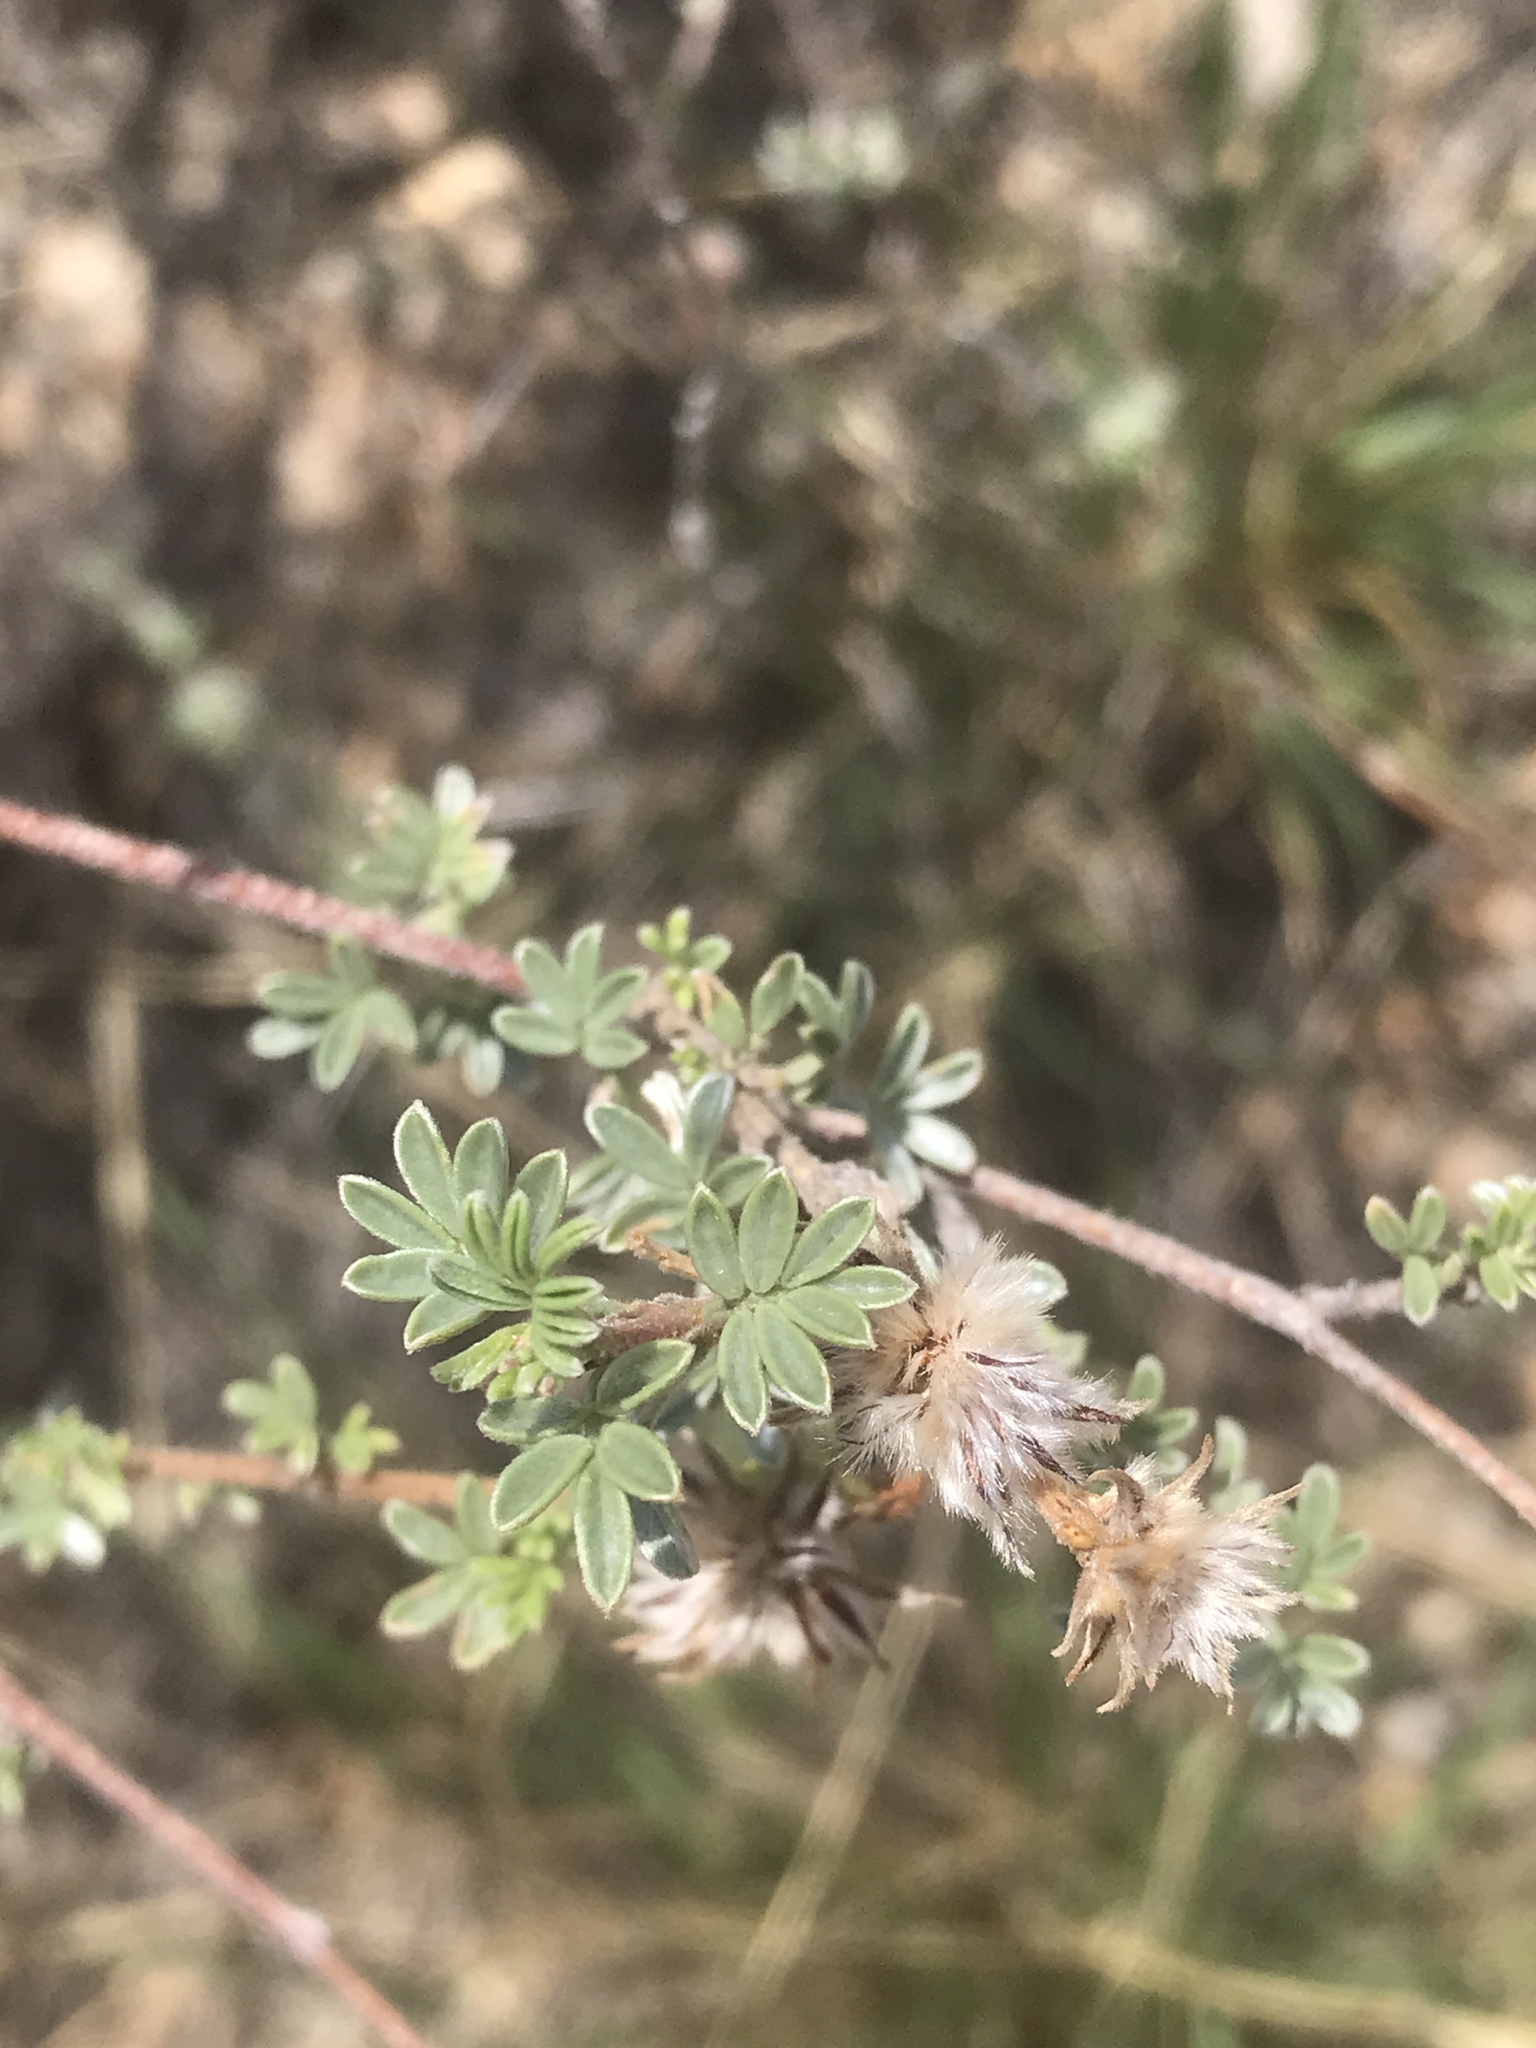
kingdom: Plantae
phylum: Tracheophyta
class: Magnoliopsida
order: Fabales
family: Fabaceae
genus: Dalea
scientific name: Dalea pulchra
